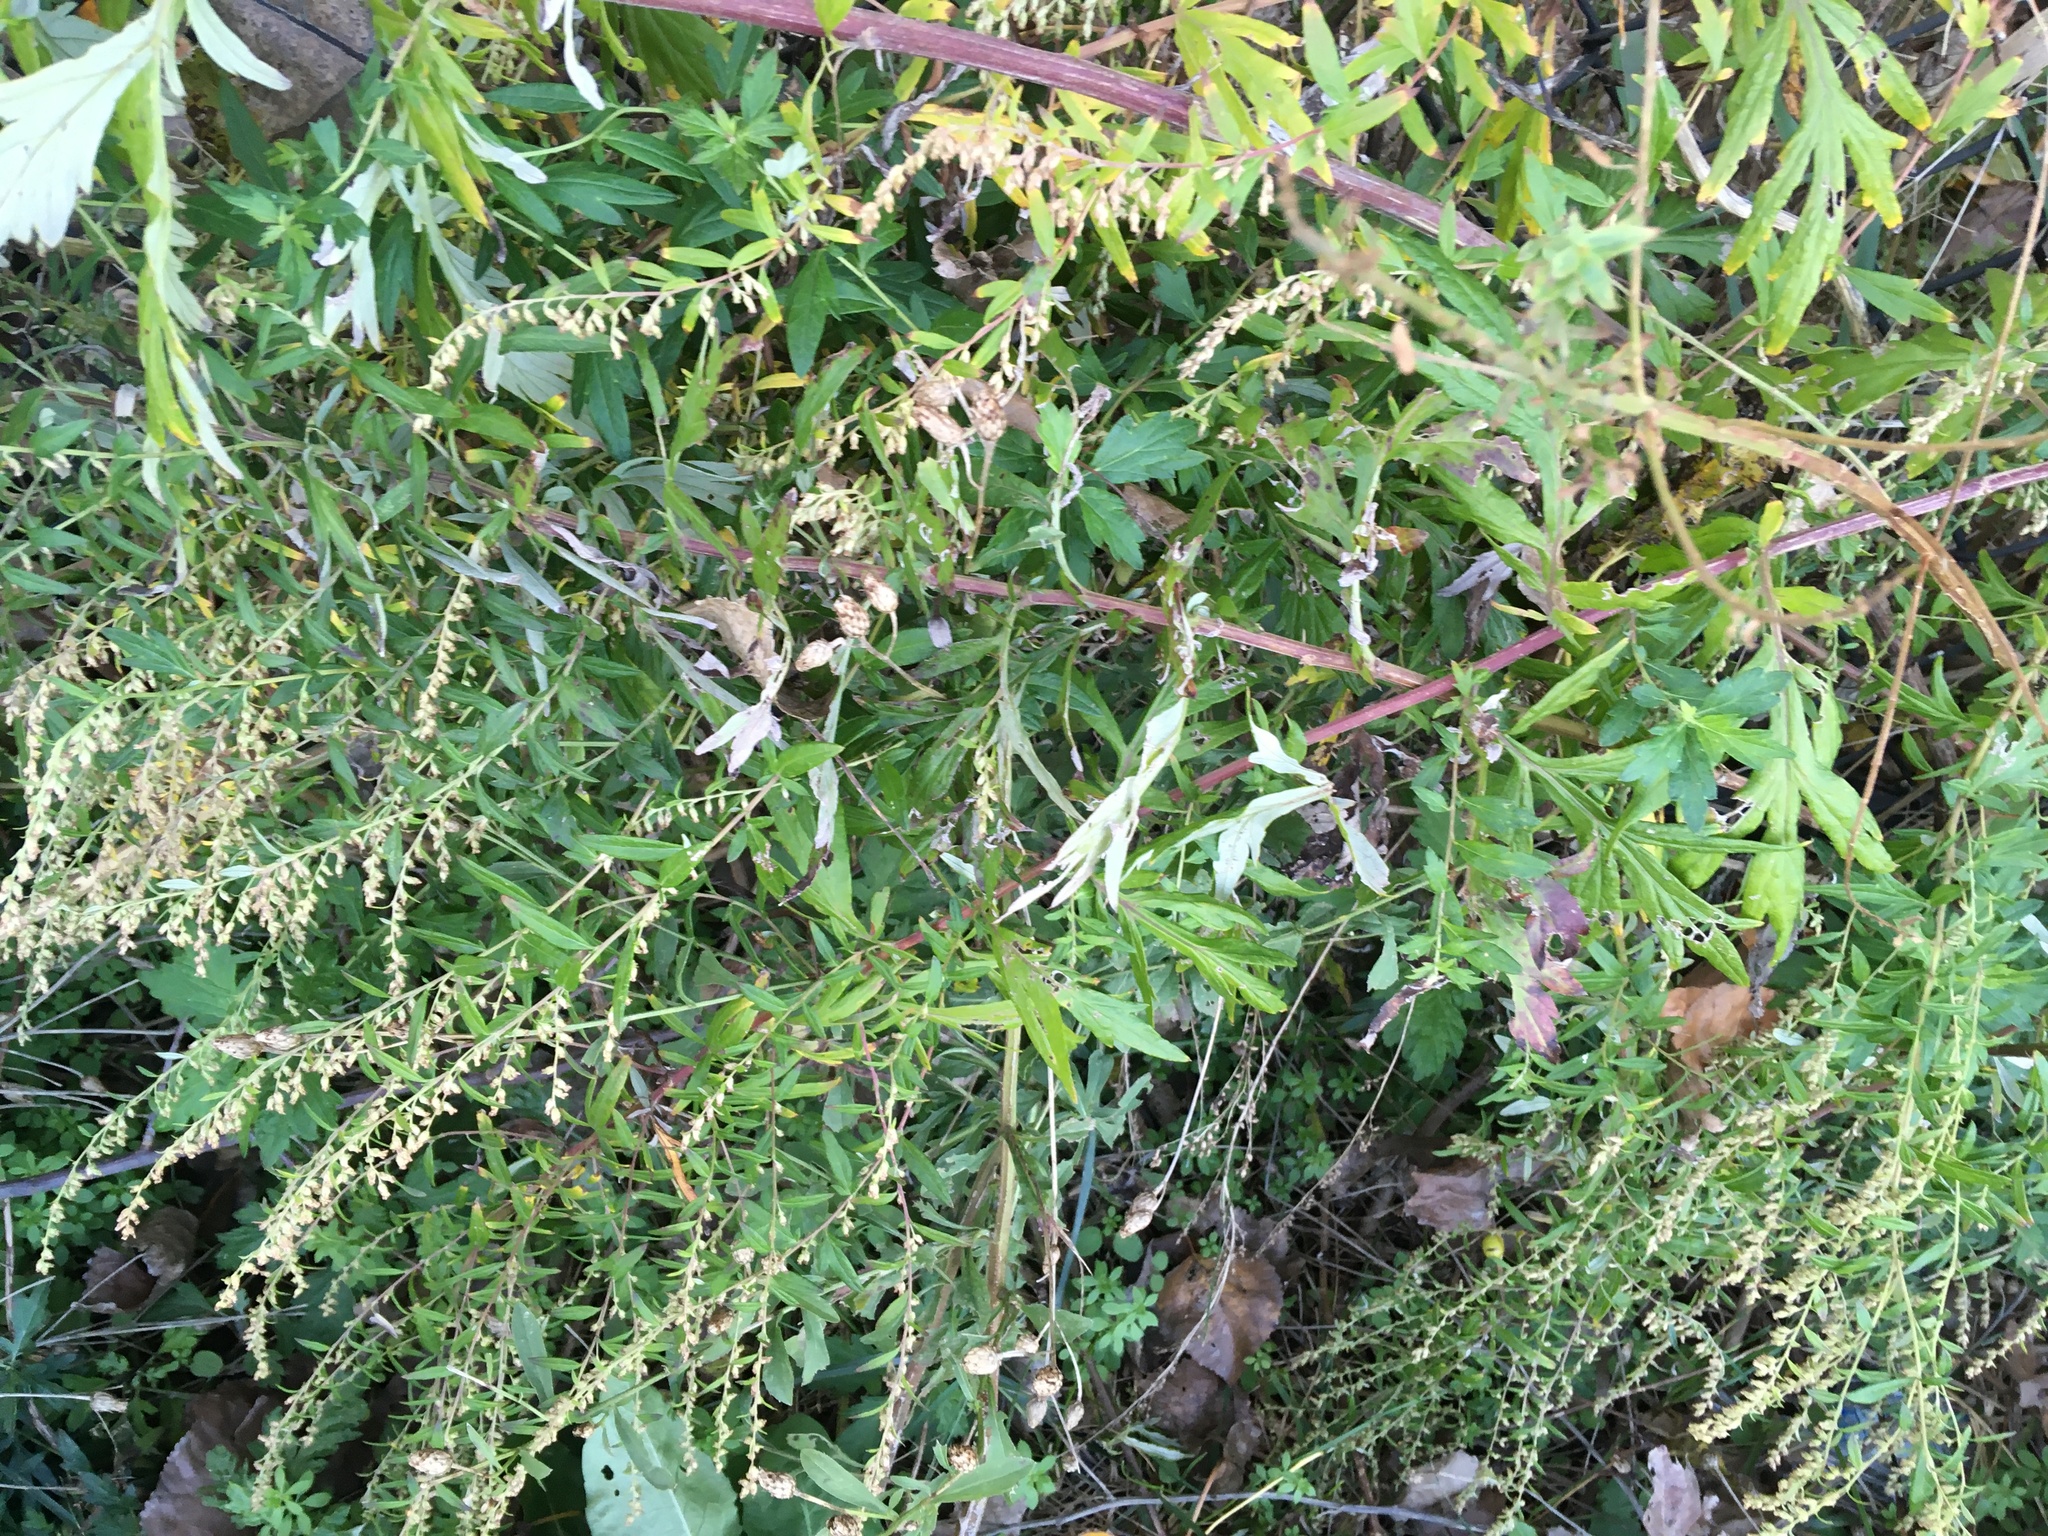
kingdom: Plantae
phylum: Tracheophyta
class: Magnoliopsida
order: Asterales
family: Asteraceae
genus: Artemisia
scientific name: Artemisia vulgaris
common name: Mugwort
